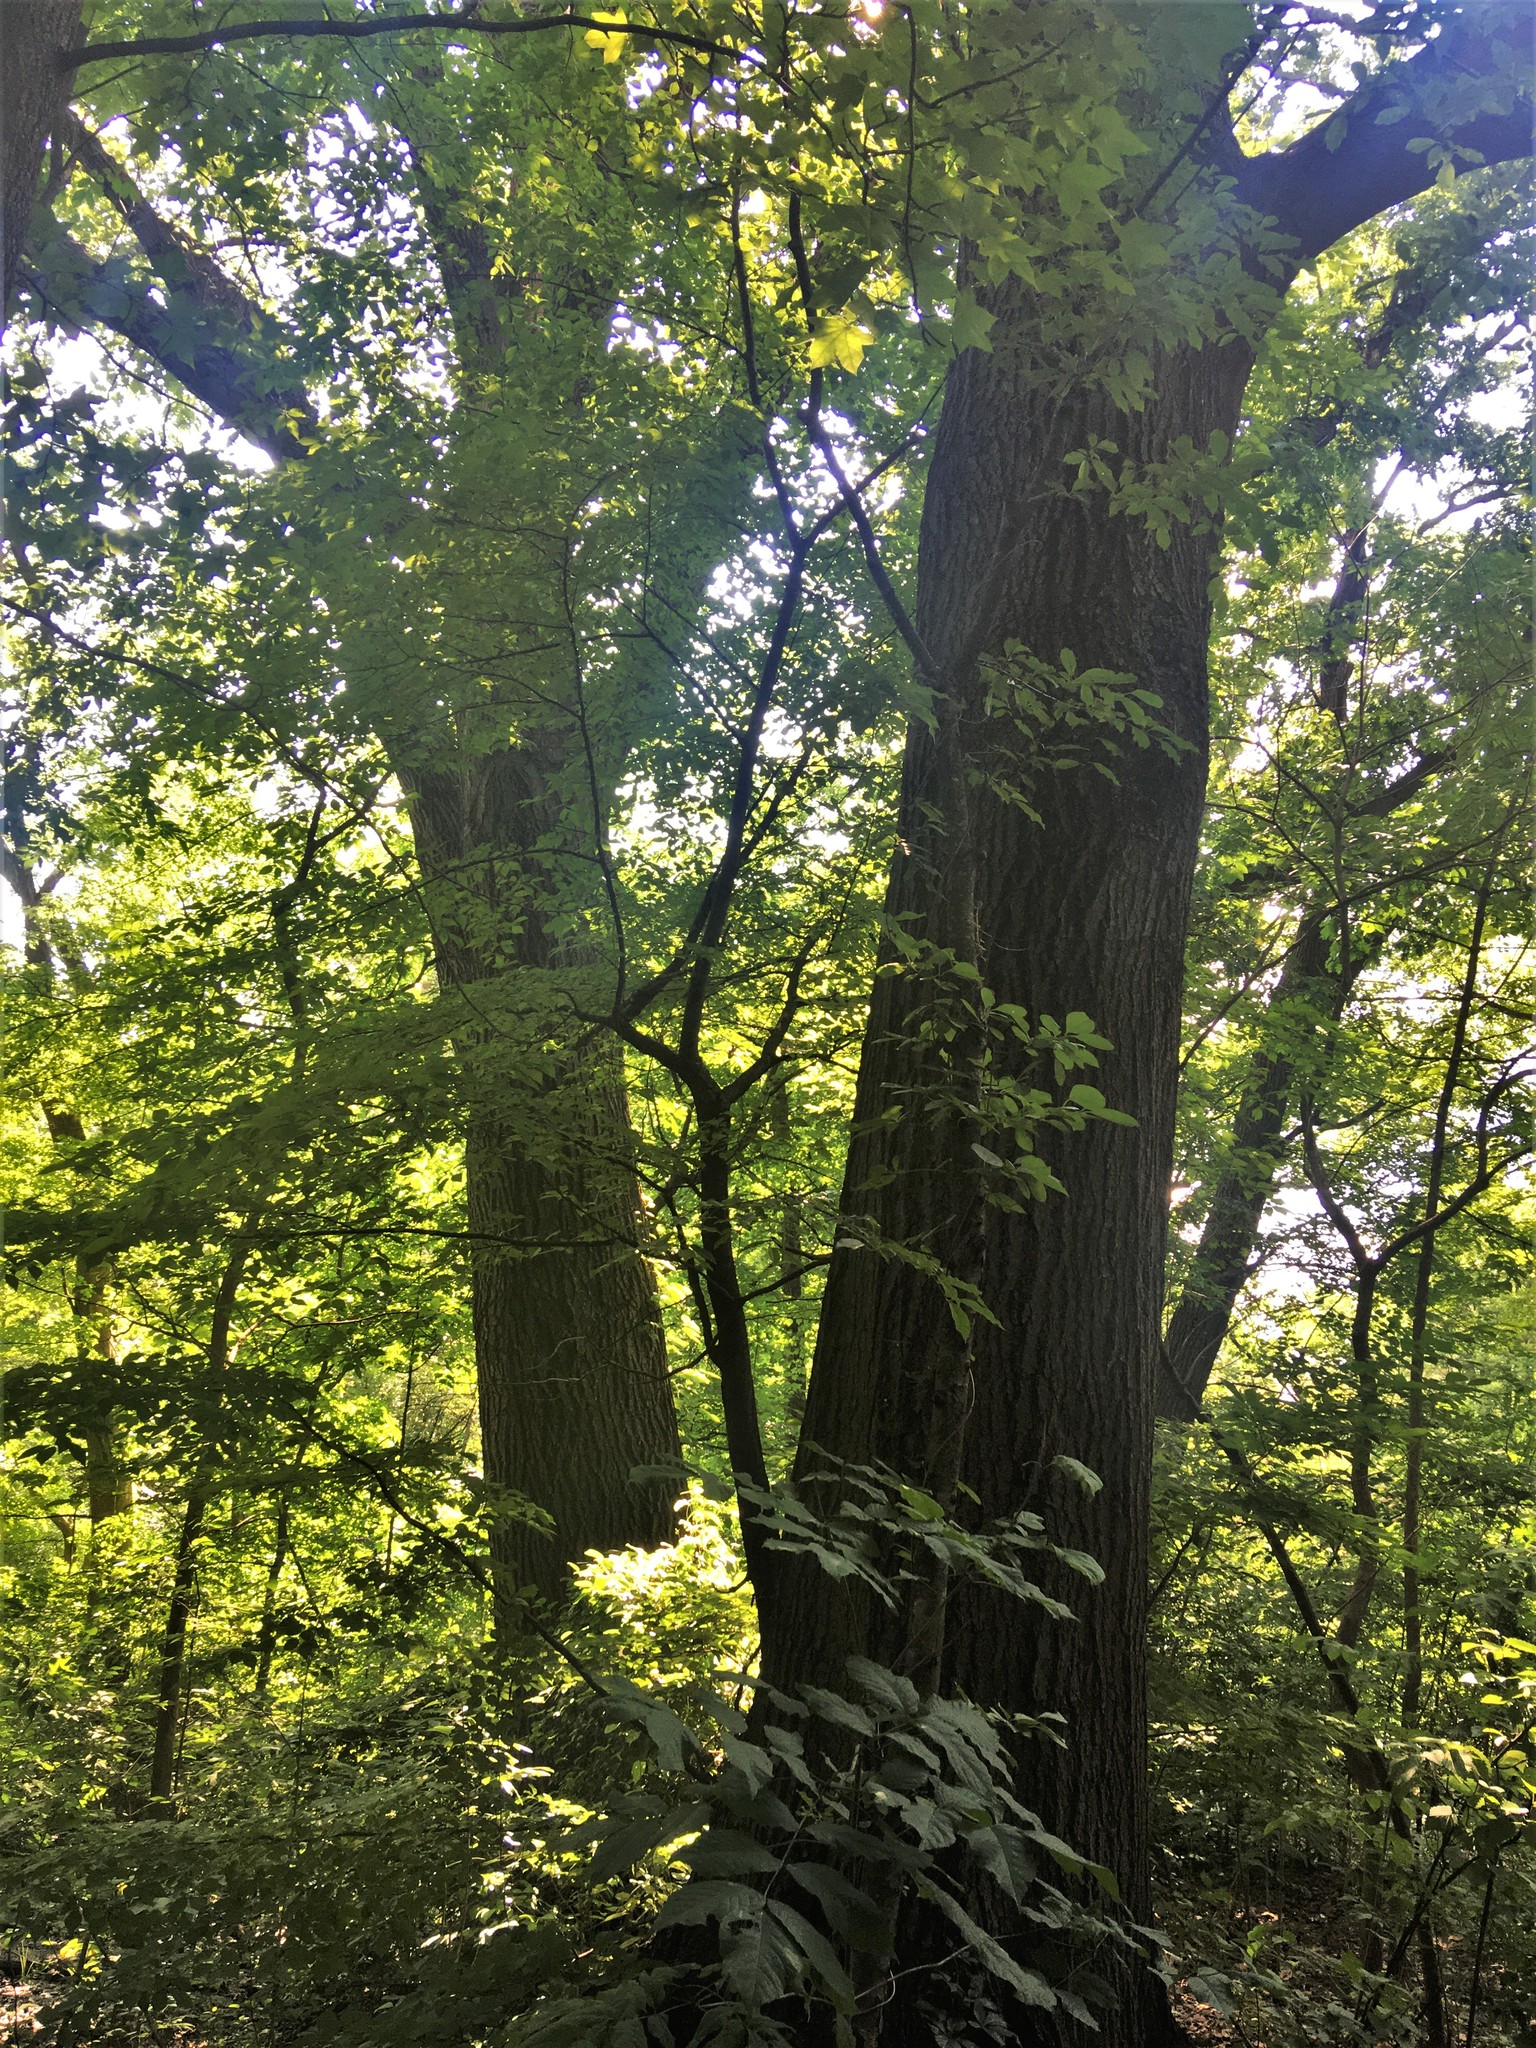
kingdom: Plantae
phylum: Tracheophyta
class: Magnoliopsida
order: Fagales
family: Fagaceae
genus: Quercus
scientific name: Quercus rubra
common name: Red oak
